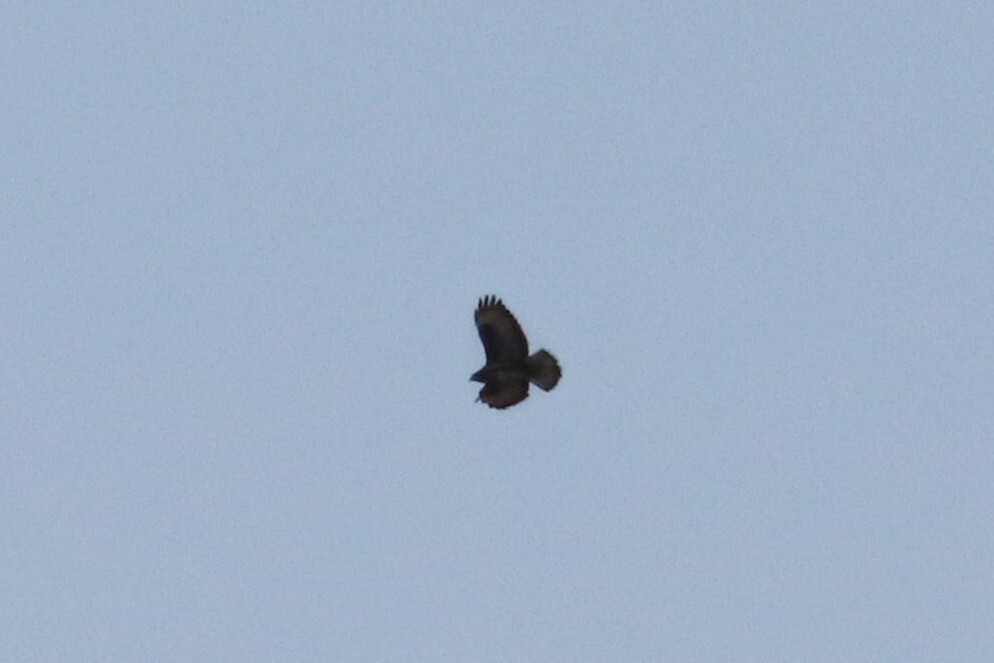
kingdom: Animalia
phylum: Chordata
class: Aves
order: Accipitriformes
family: Accipitridae
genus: Buteo
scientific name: Buteo buteo
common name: Common buzzard
